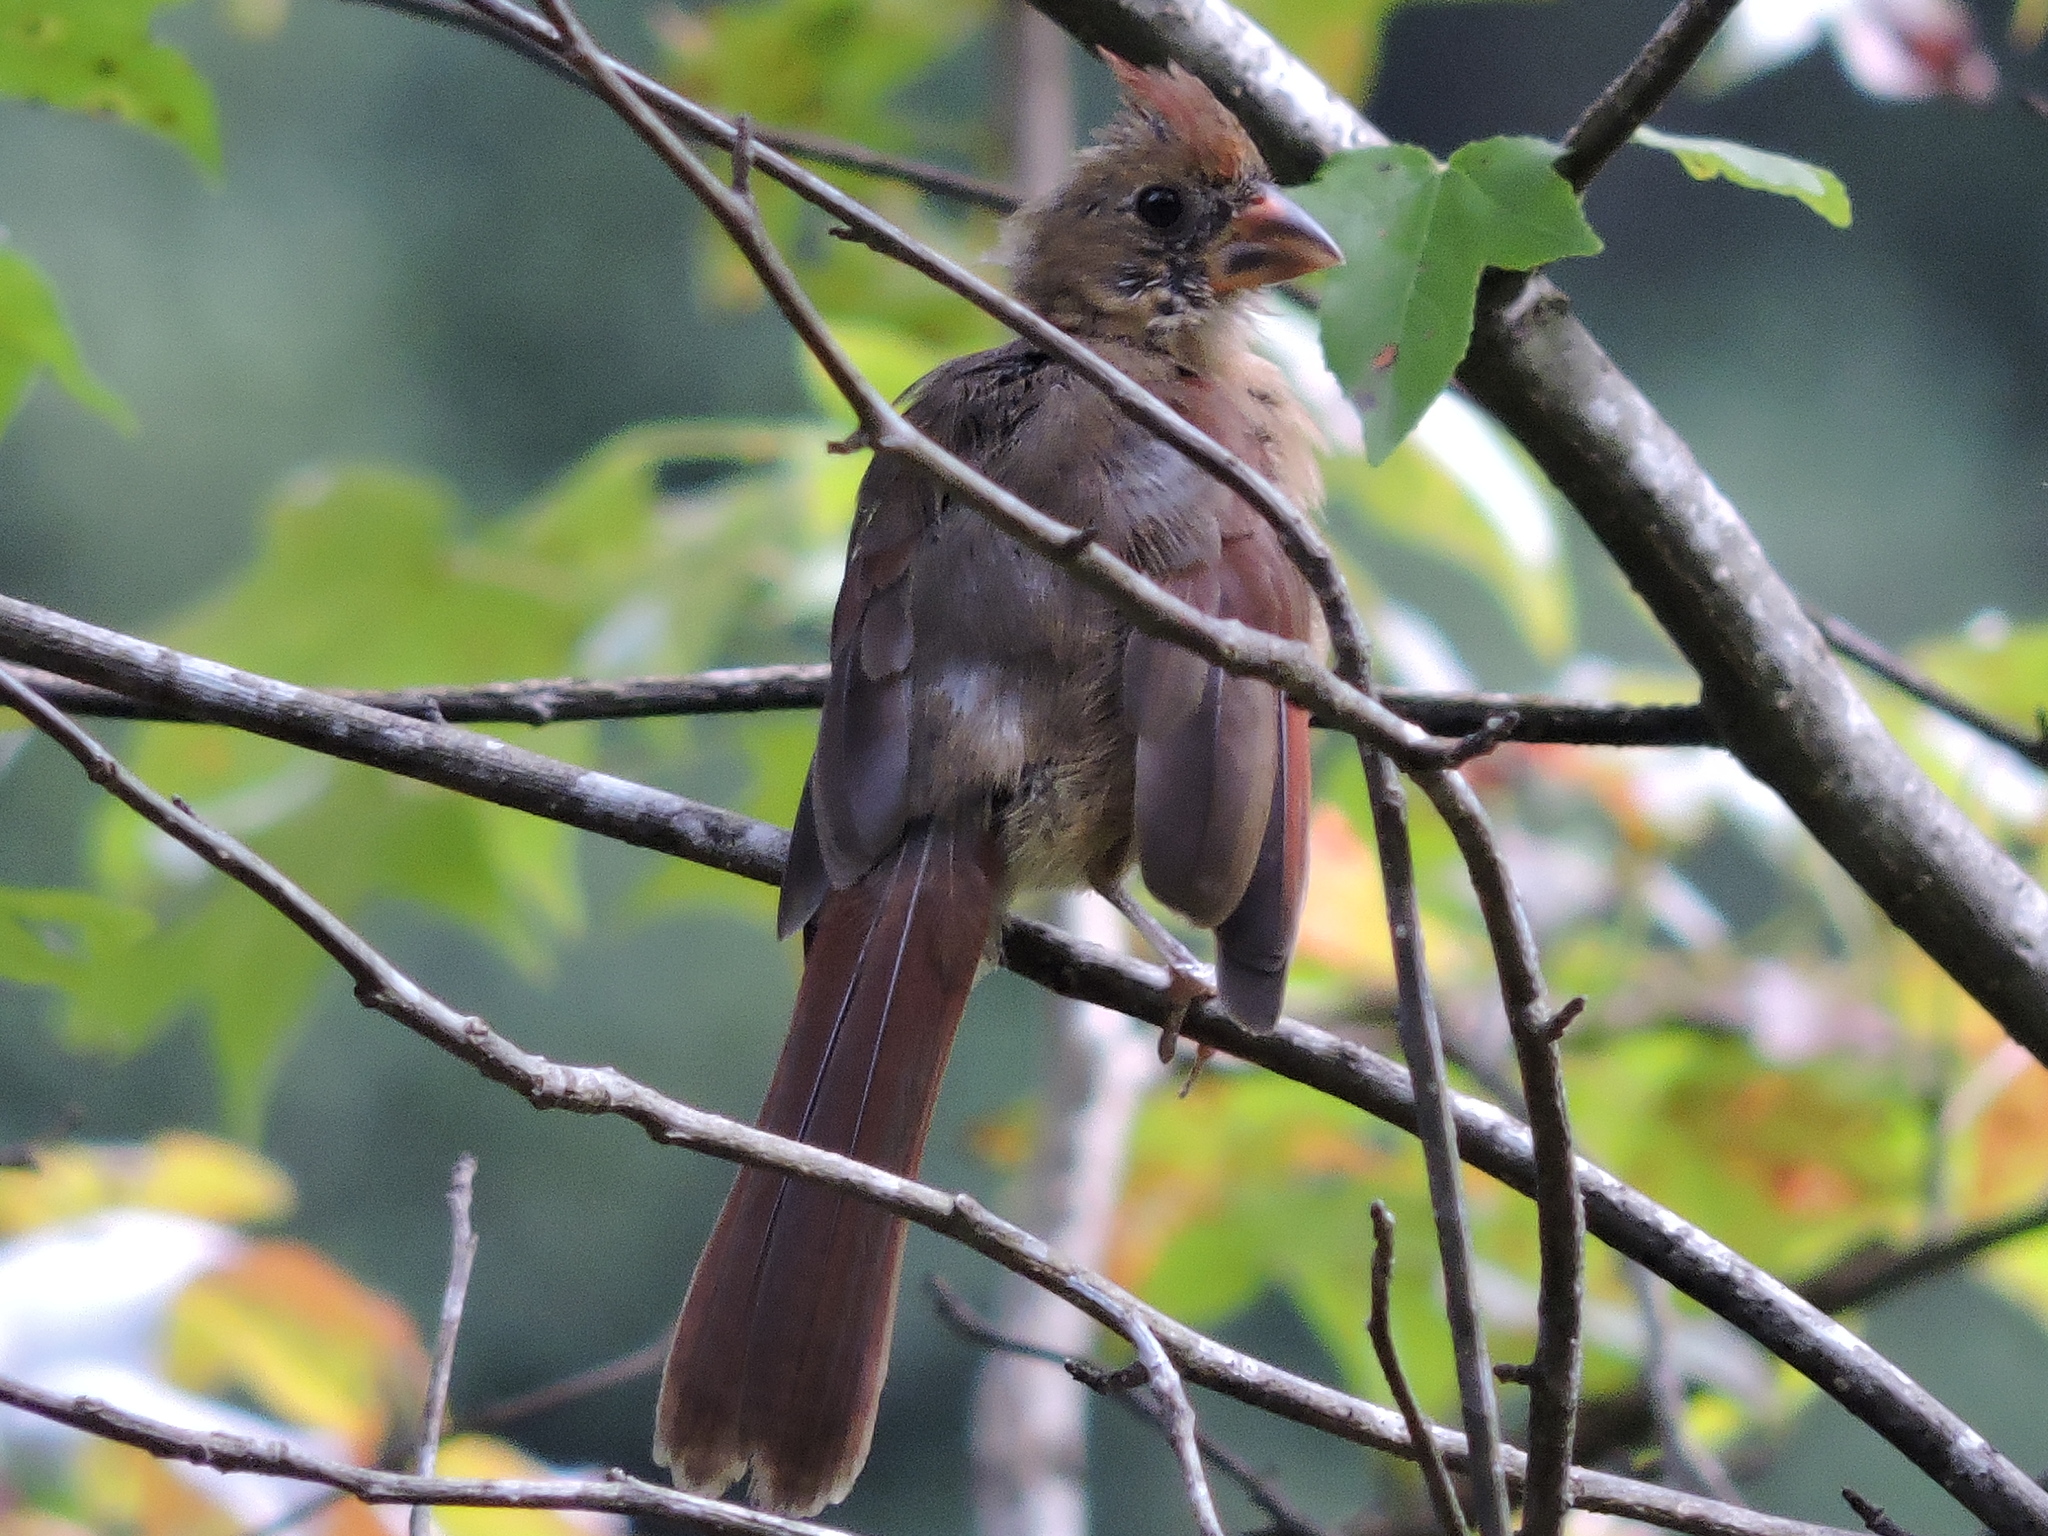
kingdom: Animalia
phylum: Chordata
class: Aves
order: Passeriformes
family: Cardinalidae
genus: Cardinalis
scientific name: Cardinalis cardinalis
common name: Northern cardinal
